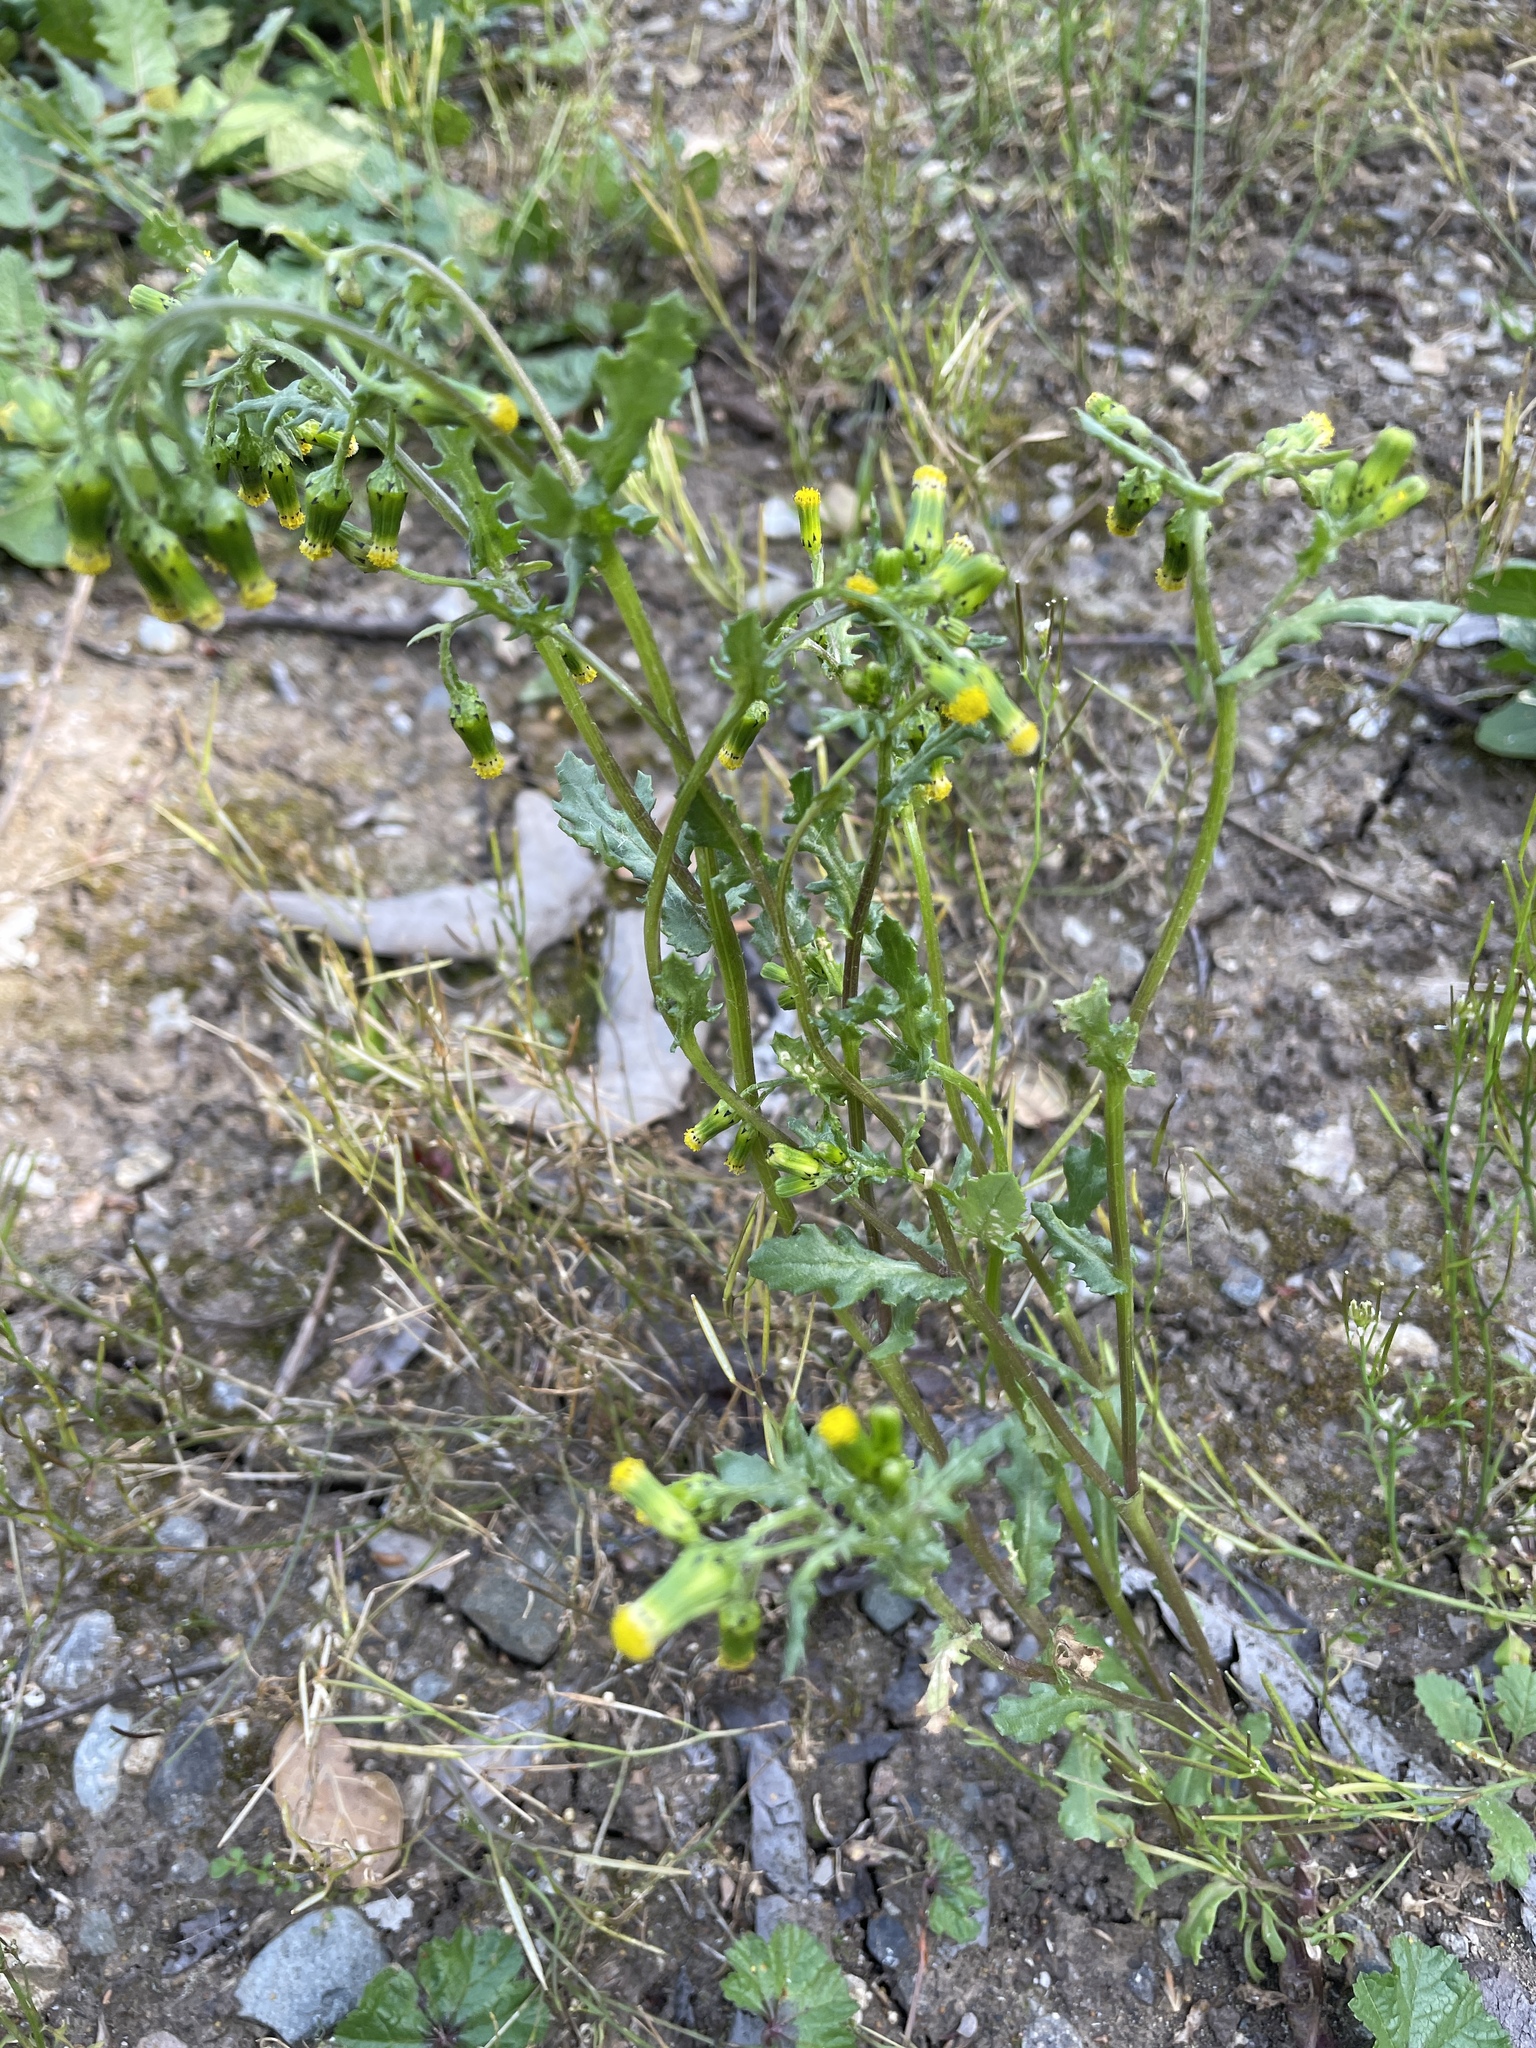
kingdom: Plantae
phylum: Tracheophyta
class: Magnoliopsida
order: Asterales
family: Asteraceae
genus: Senecio
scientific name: Senecio vulgaris
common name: Old-man-in-the-spring
